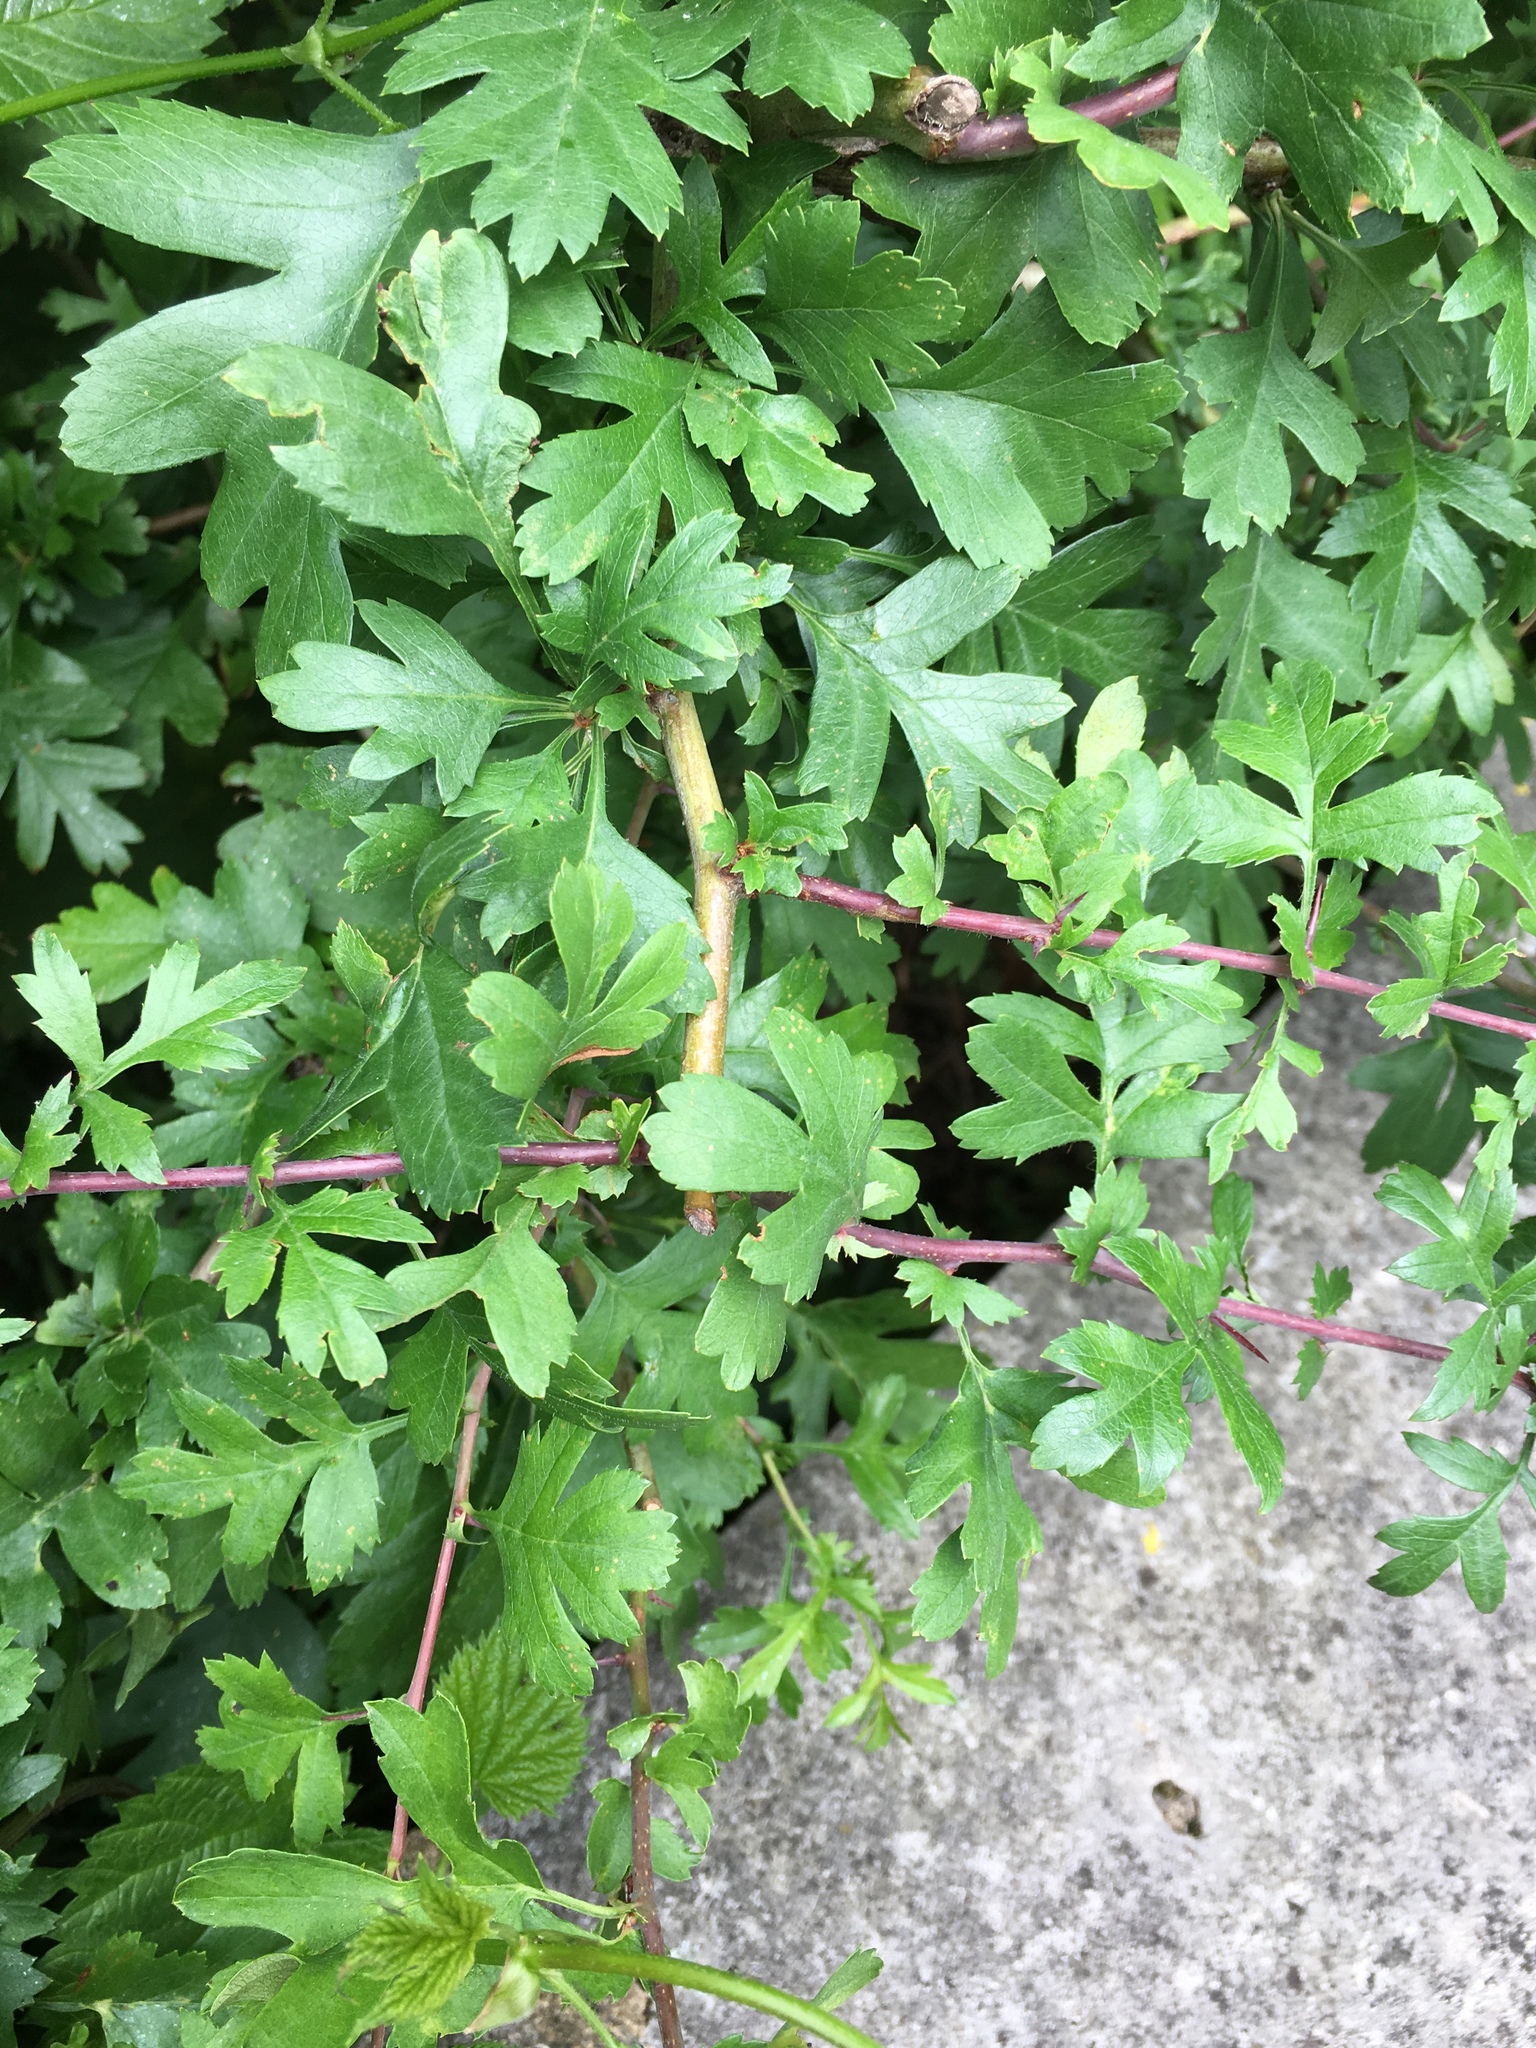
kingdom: Plantae
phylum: Tracheophyta
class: Magnoliopsida
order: Rosales
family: Rosaceae
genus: Crataegus
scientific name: Crataegus monogyna
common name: Hawthorn
